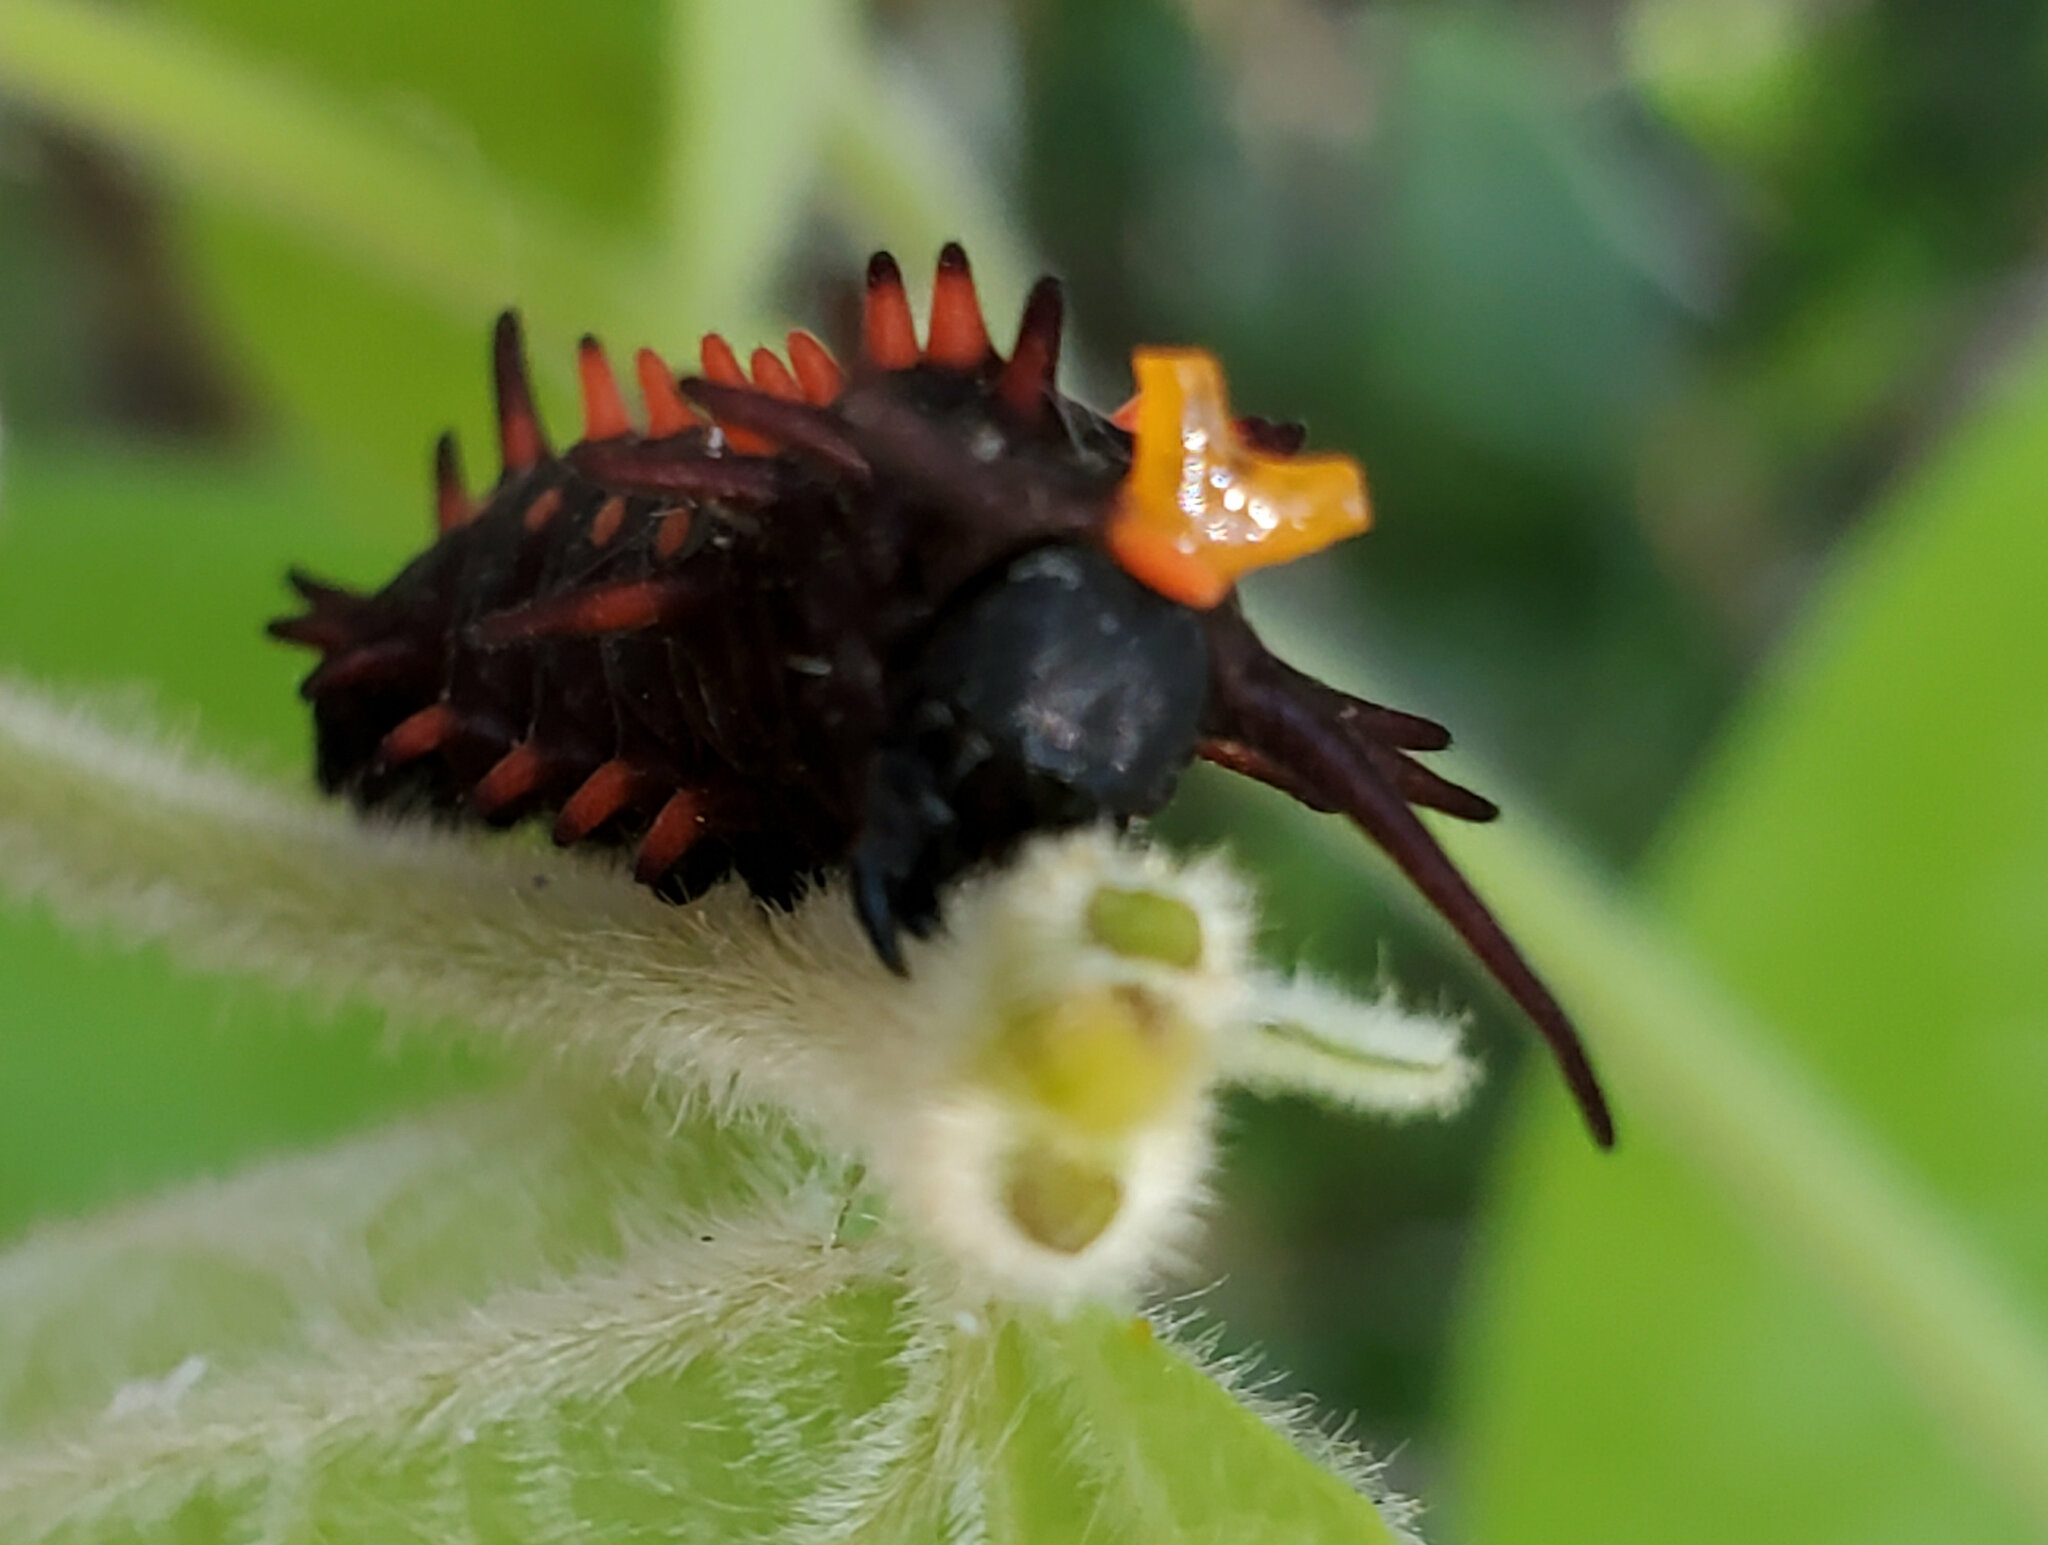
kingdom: Animalia
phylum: Arthropoda
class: Insecta
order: Lepidoptera
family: Papilionidae
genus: Battus
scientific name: Battus philenor
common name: Pipevine swallowtail
